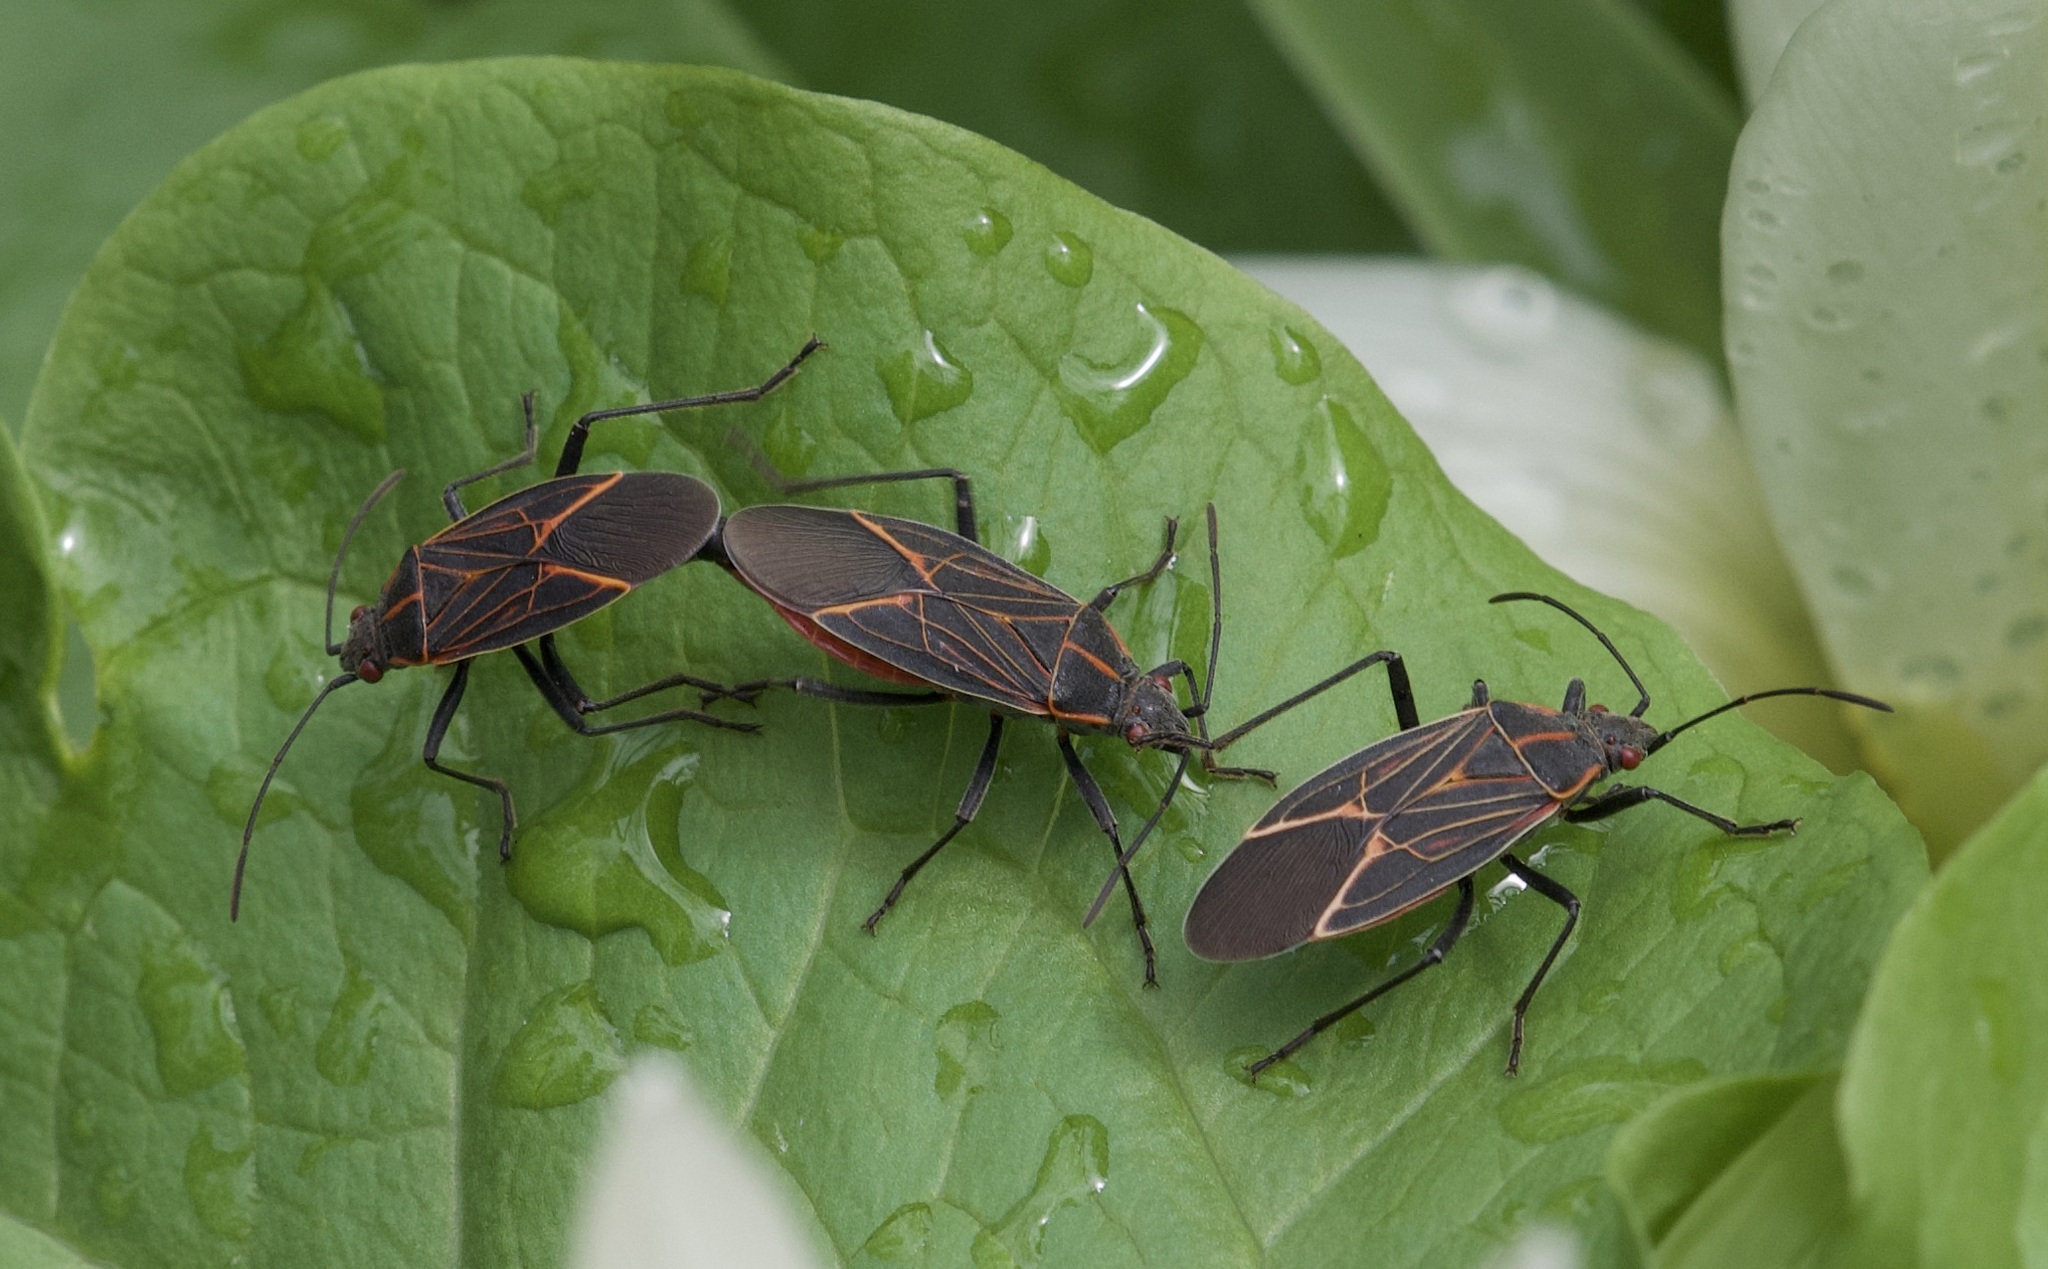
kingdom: Animalia
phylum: Arthropoda
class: Insecta
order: Hemiptera
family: Rhopalidae
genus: Boisea
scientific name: Boisea rubrolineata
